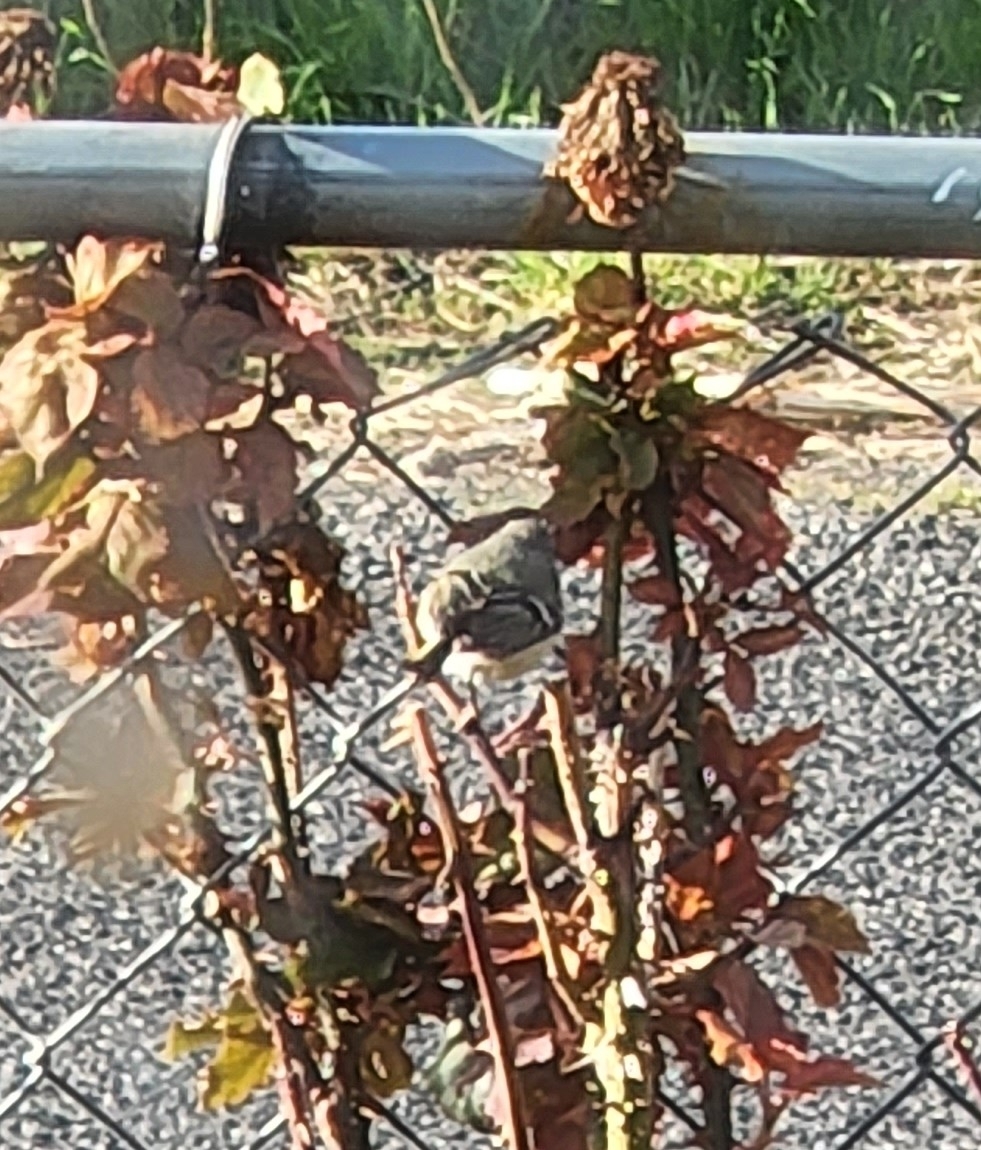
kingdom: Animalia
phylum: Chordata
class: Aves
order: Passeriformes
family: Regulidae
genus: Regulus
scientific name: Regulus calendula
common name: Ruby-crowned kinglet
